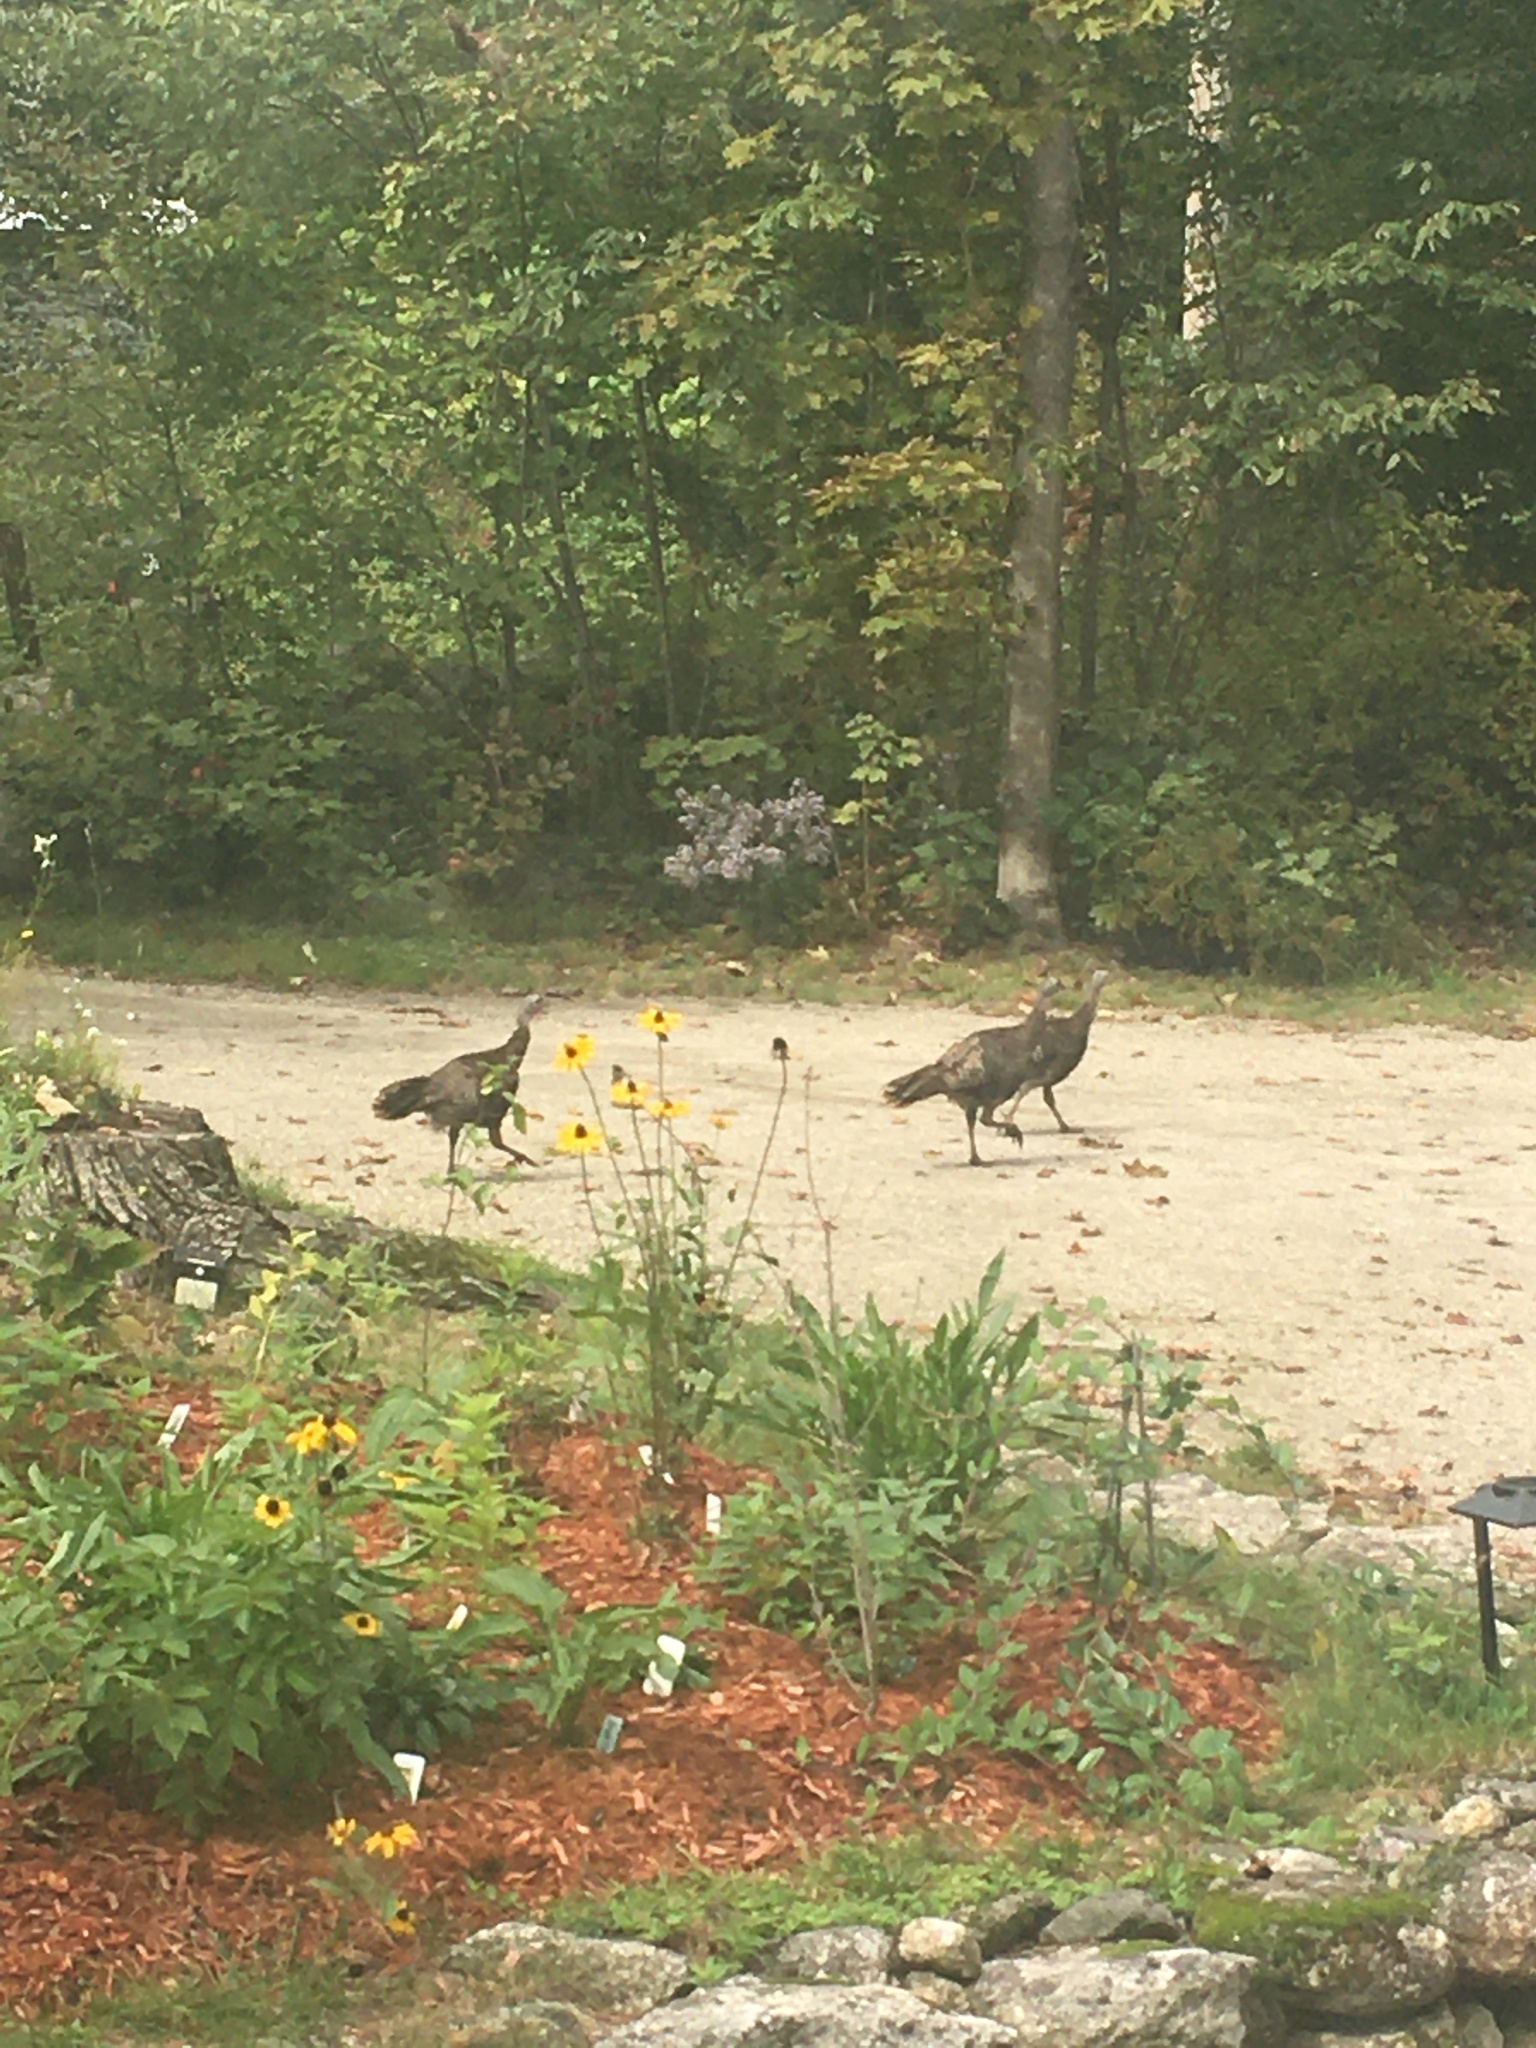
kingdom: Animalia
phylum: Chordata
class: Aves
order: Galliformes
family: Phasianidae
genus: Meleagris
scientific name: Meleagris gallopavo
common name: Wild turkey
